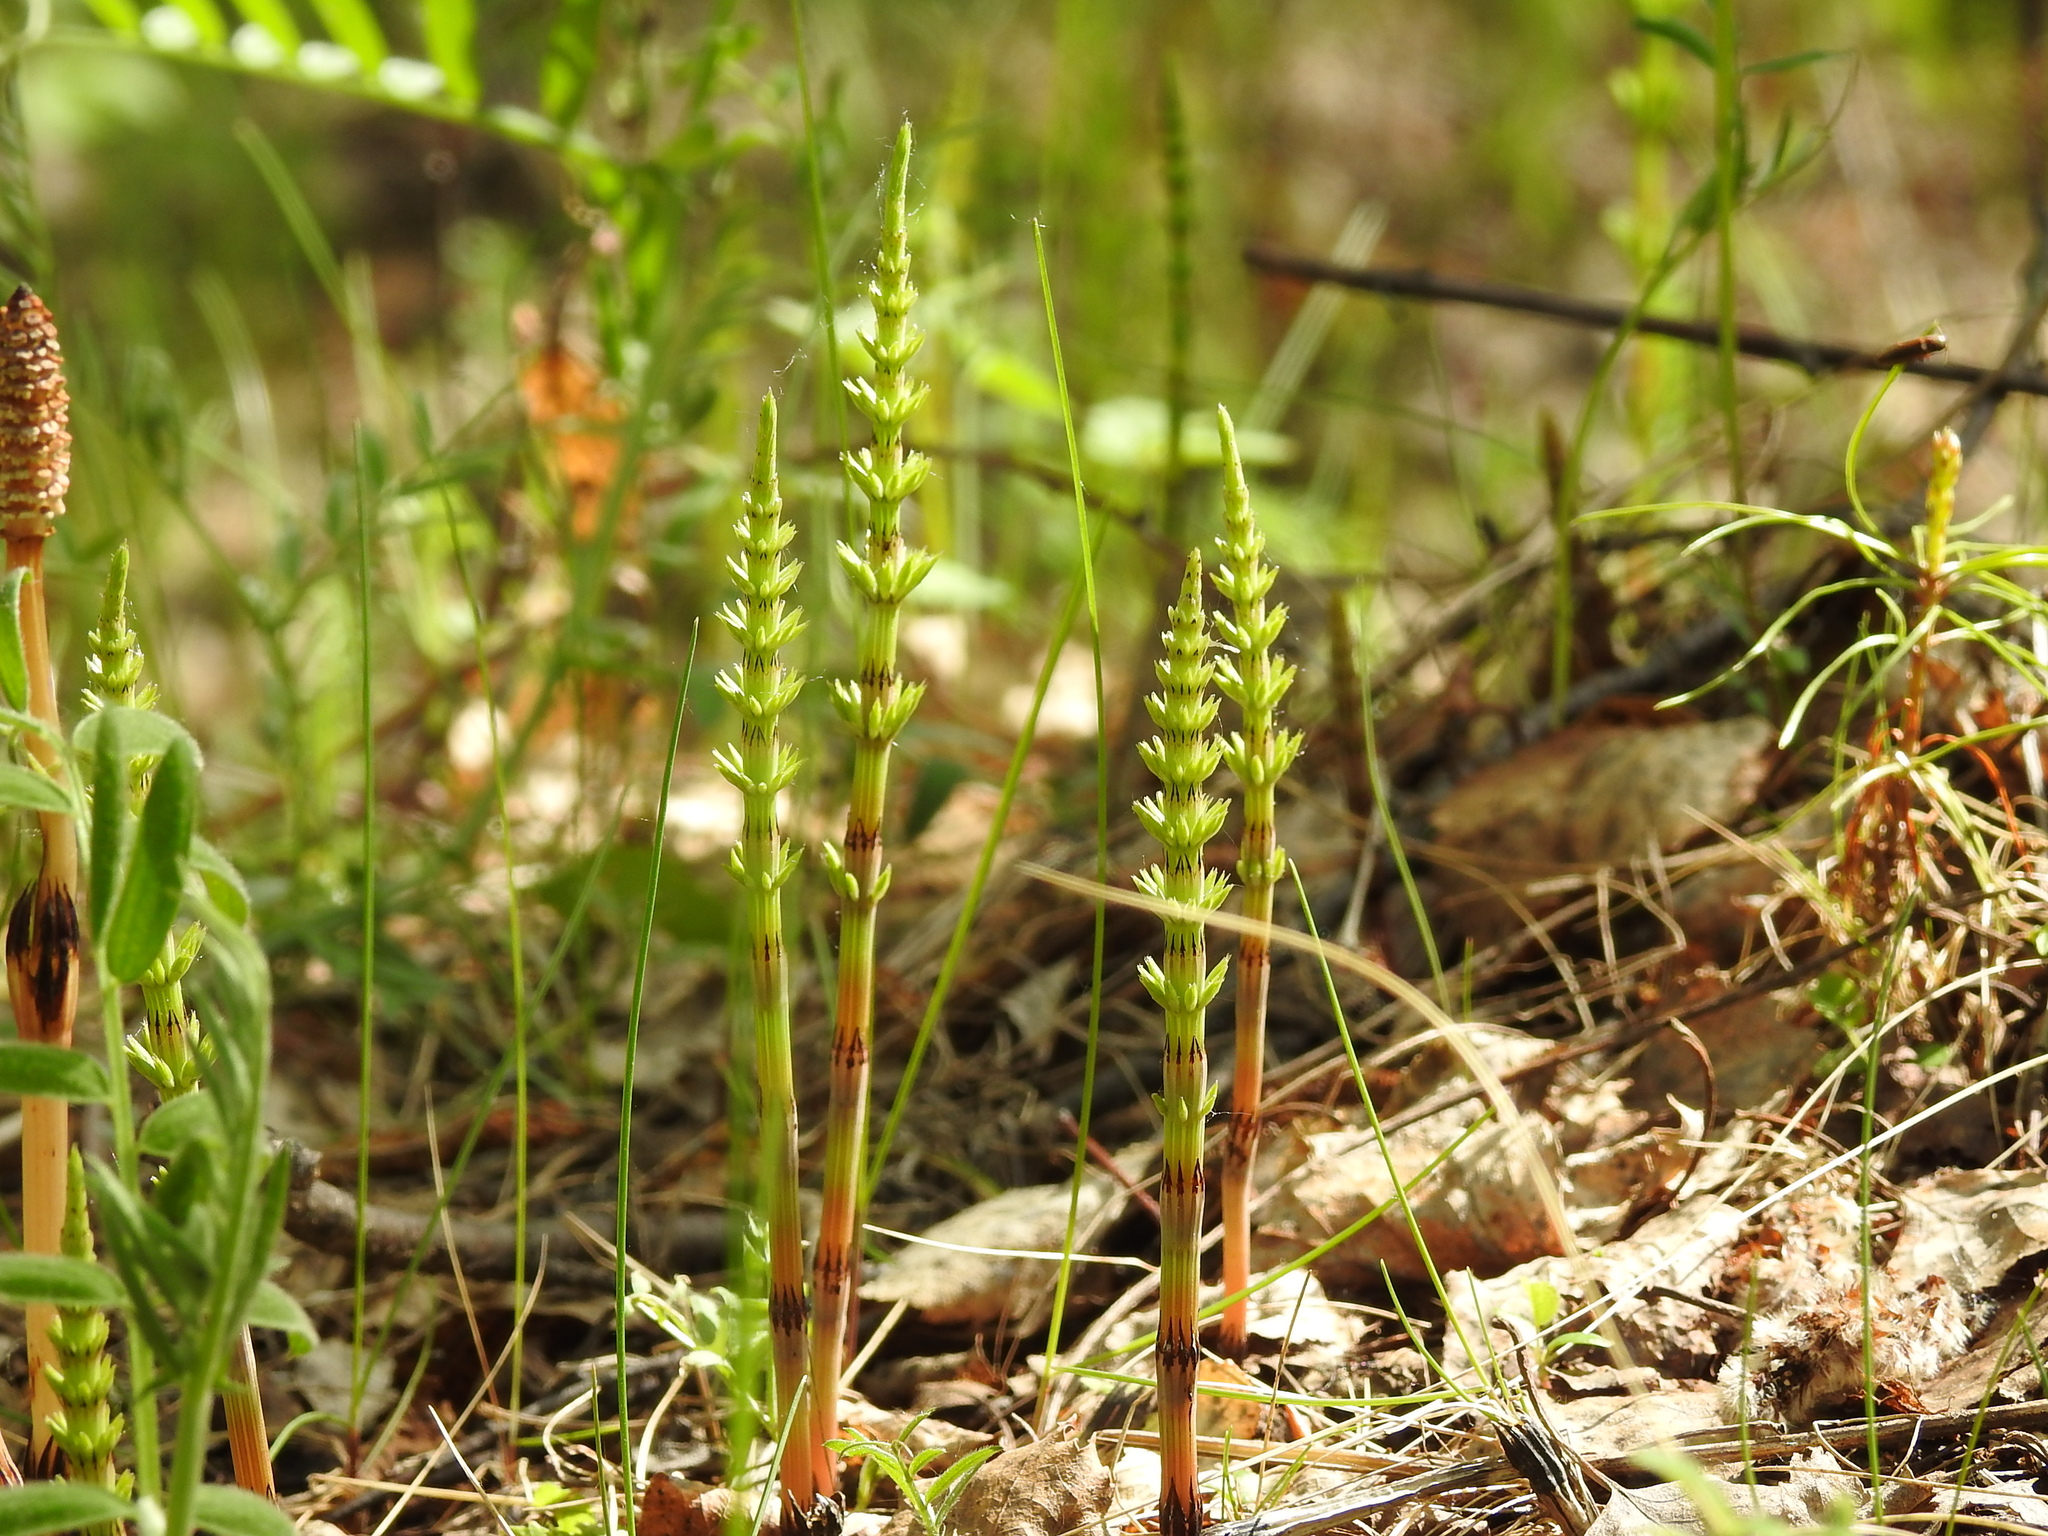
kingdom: Plantae
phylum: Tracheophyta
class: Polypodiopsida
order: Equisetales
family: Equisetaceae
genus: Equisetum
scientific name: Equisetum arvense
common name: Field horsetail
